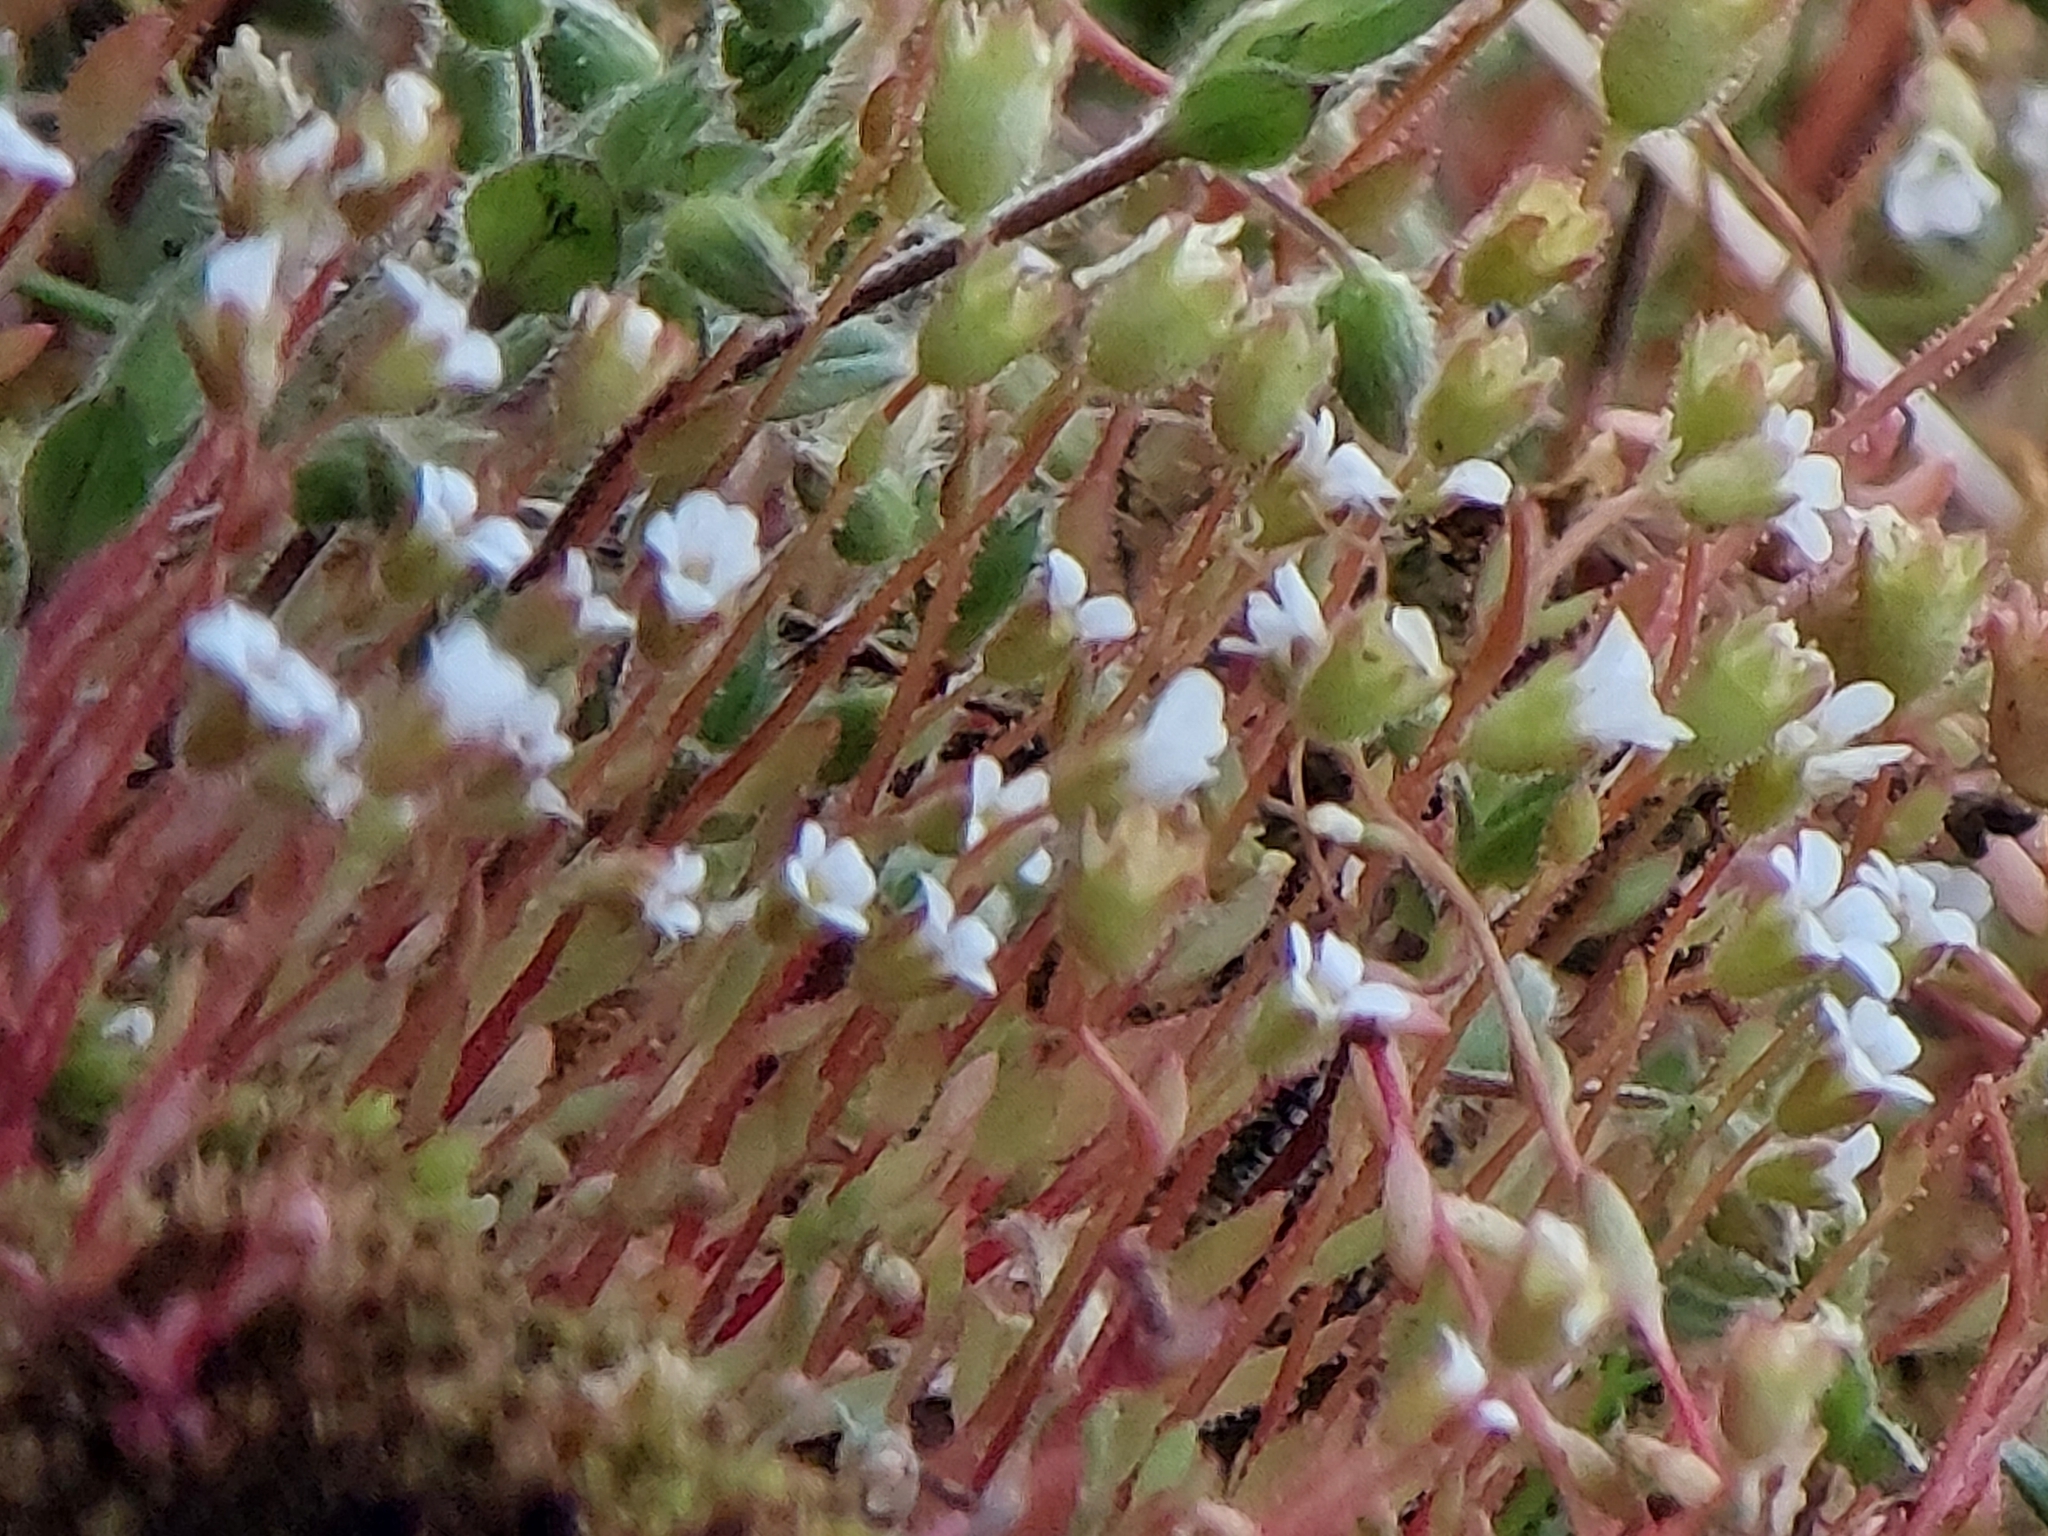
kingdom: Plantae
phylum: Tracheophyta
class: Magnoliopsida
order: Saxifragales
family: Saxifragaceae
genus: Saxifraga
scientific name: Saxifraga tridactylites
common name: Rue-leaved saxifrage
